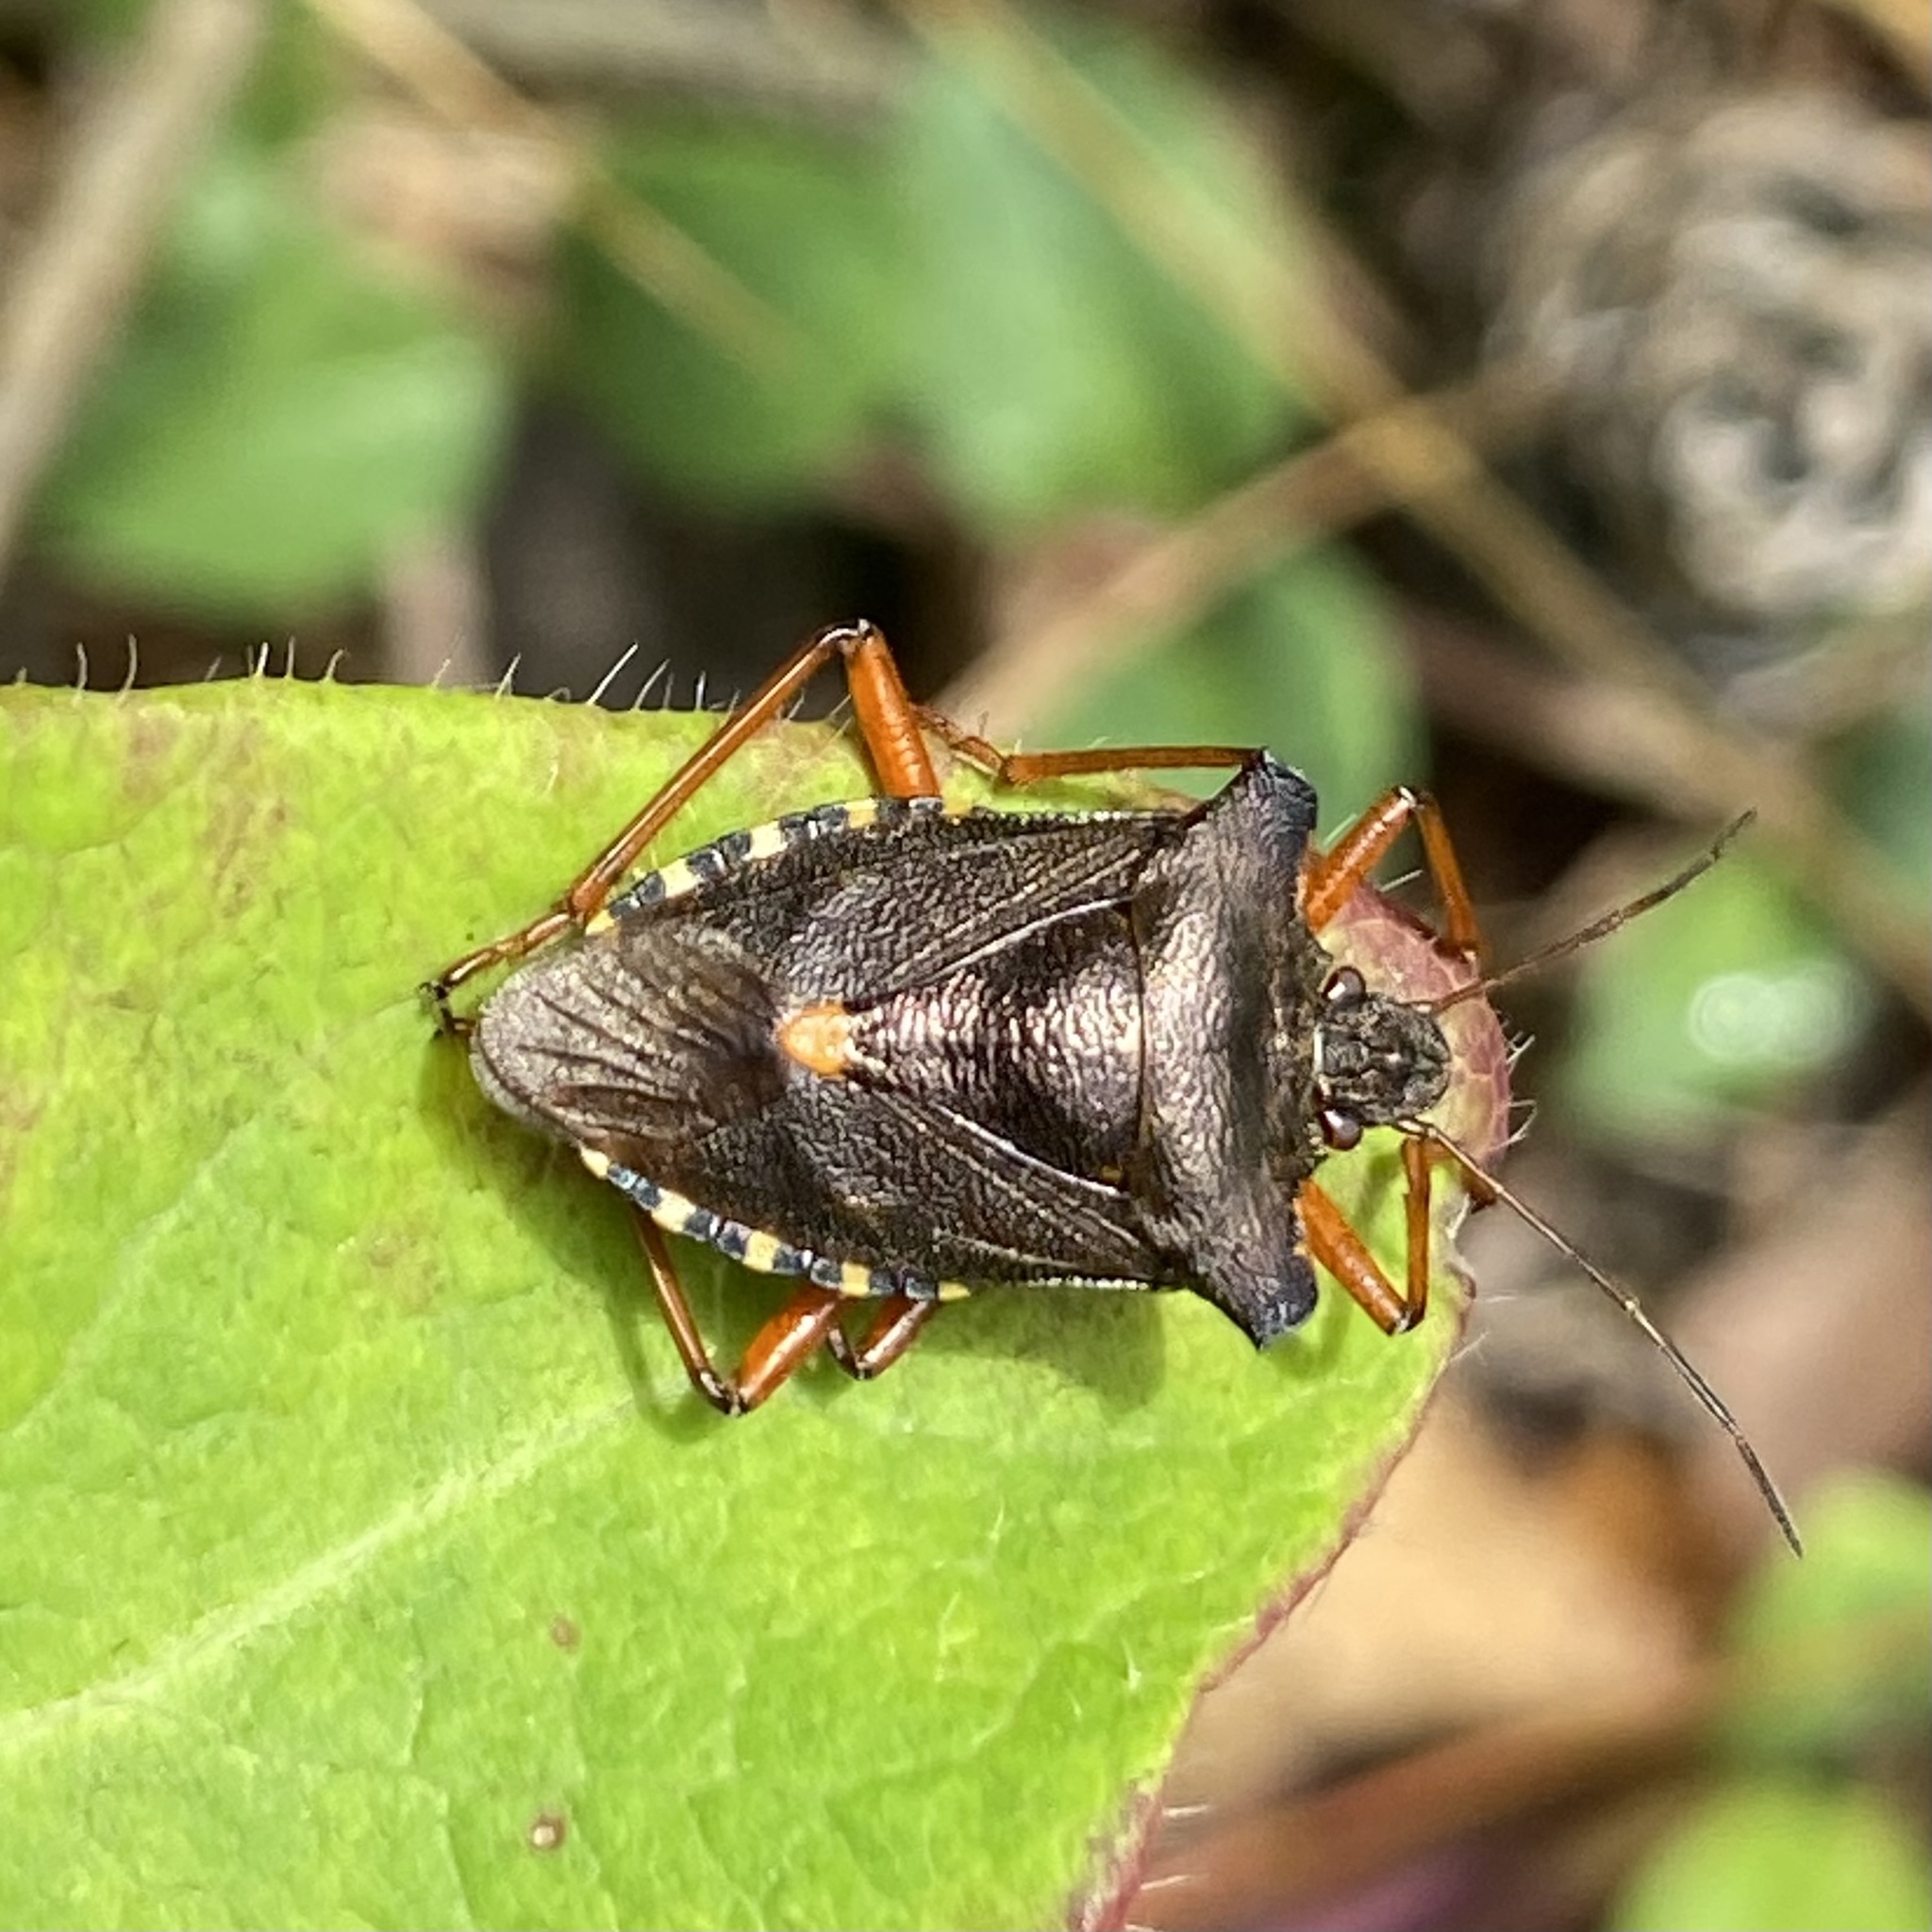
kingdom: Animalia
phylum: Arthropoda
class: Insecta
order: Hemiptera
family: Pentatomidae
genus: Pentatoma
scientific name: Pentatoma rufipes
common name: Forest bug
